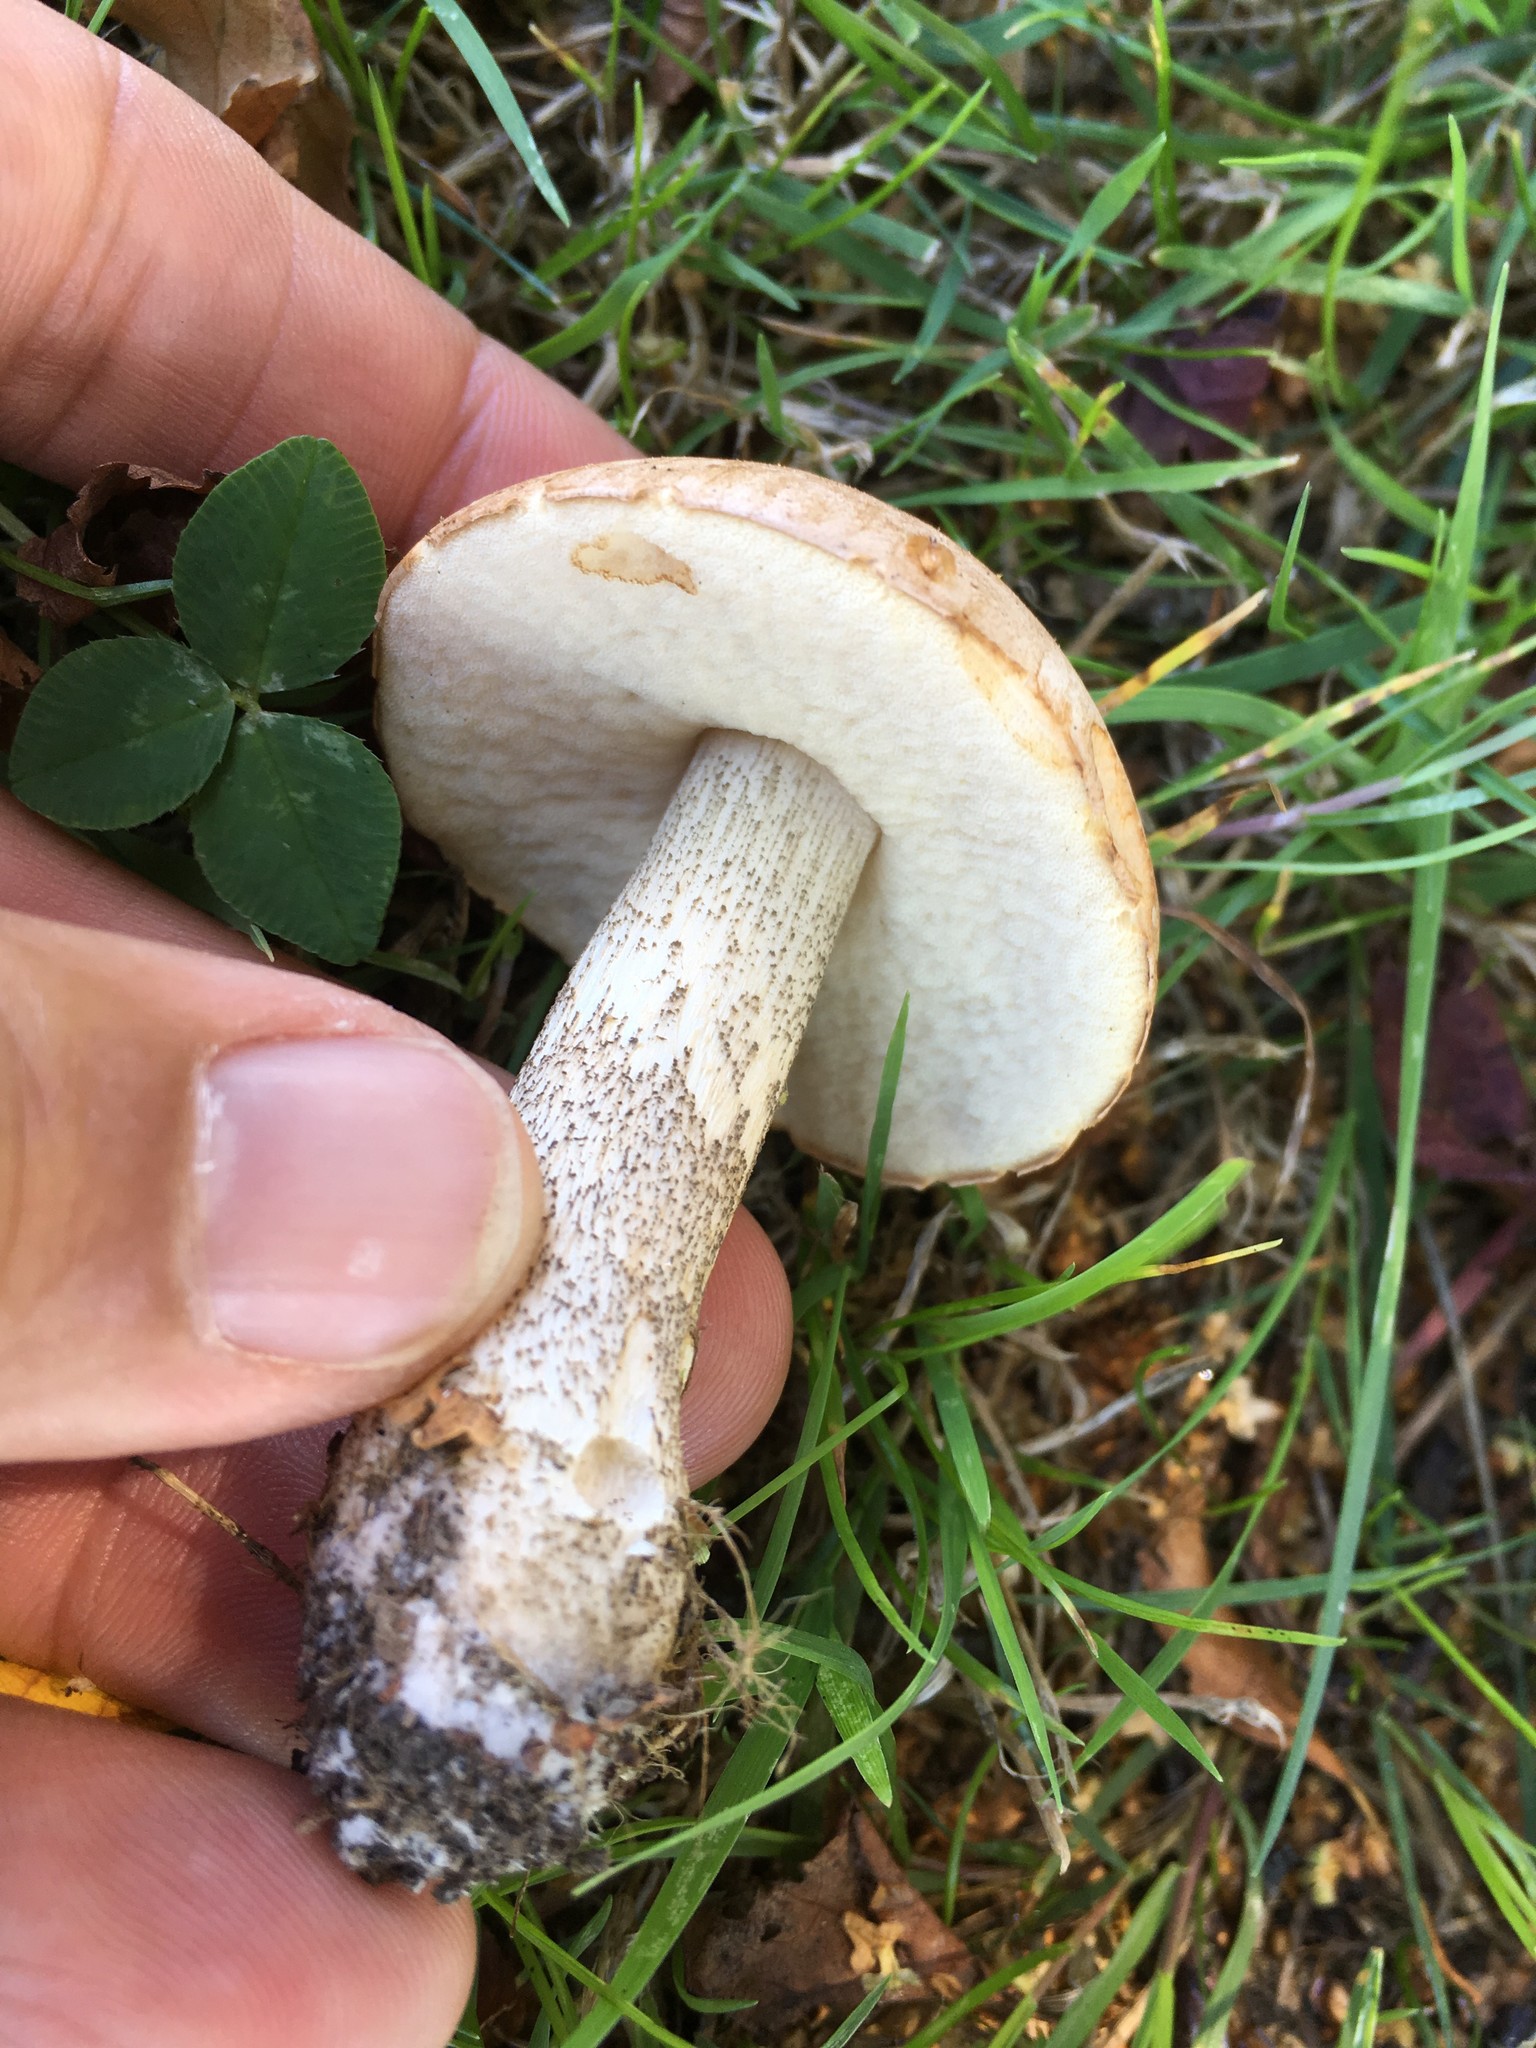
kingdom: Fungi
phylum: Basidiomycota
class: Agaricomycetes
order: Boletales
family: Boletaceae
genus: Leccinum
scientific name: Leccinum scabrum
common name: Blushing bolete
